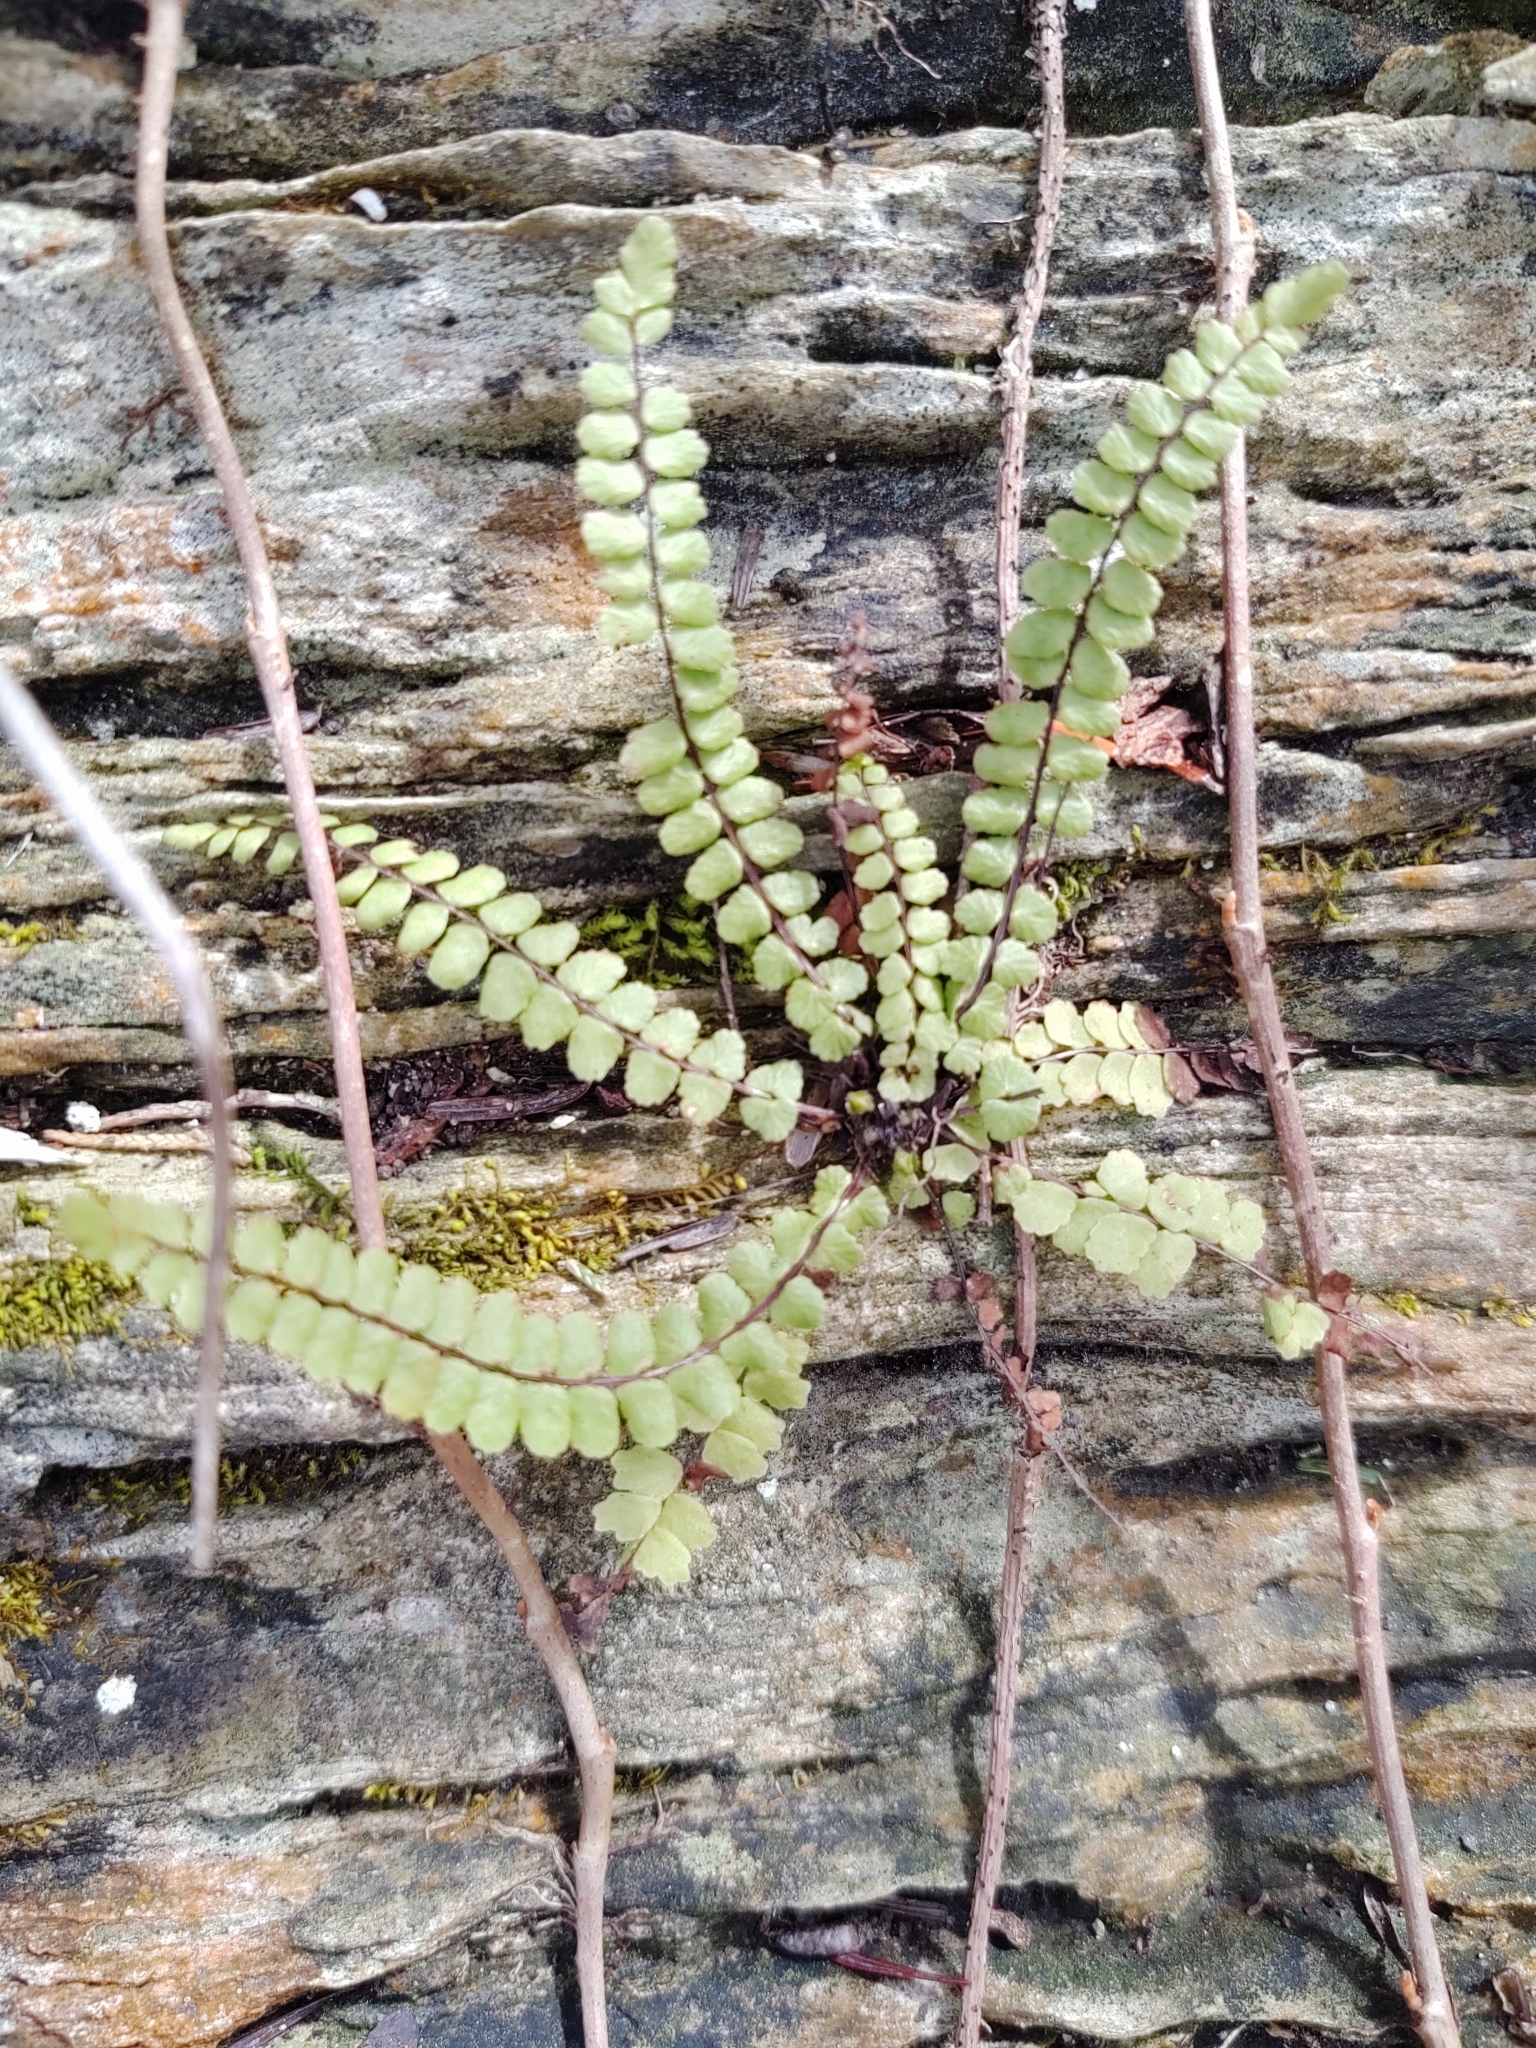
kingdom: Plantae
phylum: Tracheophyta
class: Polypodiopsida
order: Polypodiales
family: Aspleniaceae
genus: Asplenium
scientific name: Asplenium trichomanes
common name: Maidenhair spleenwort
